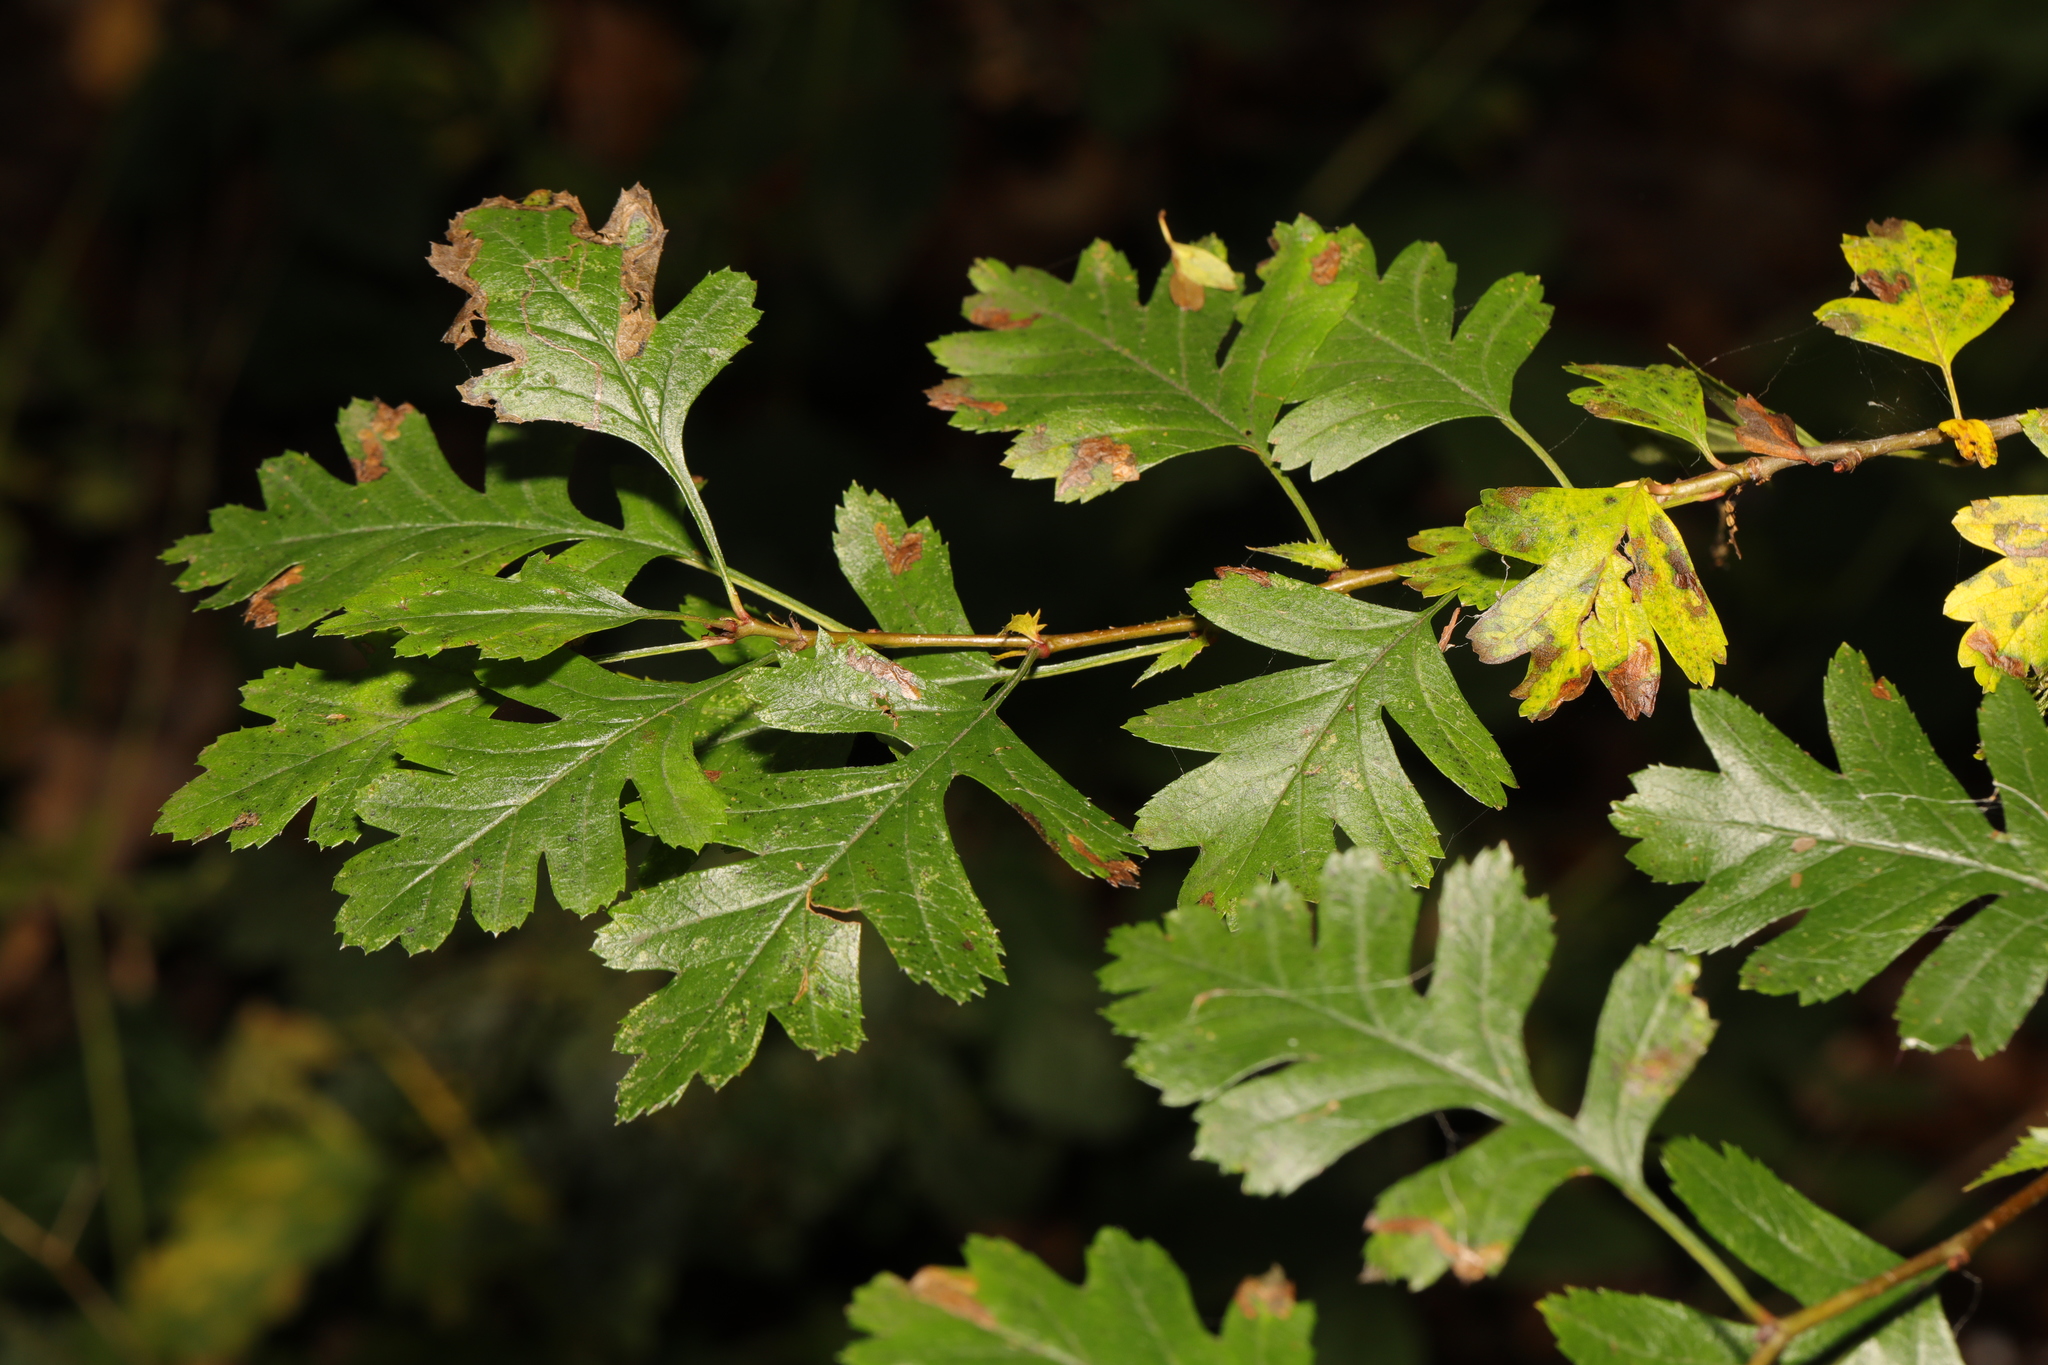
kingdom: Plantae
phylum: Tracheophyta
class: Magnoliopsida
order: Rosales
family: Rosaceae
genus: Crataegus
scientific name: Crataegus monogyna
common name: Hawthorn
